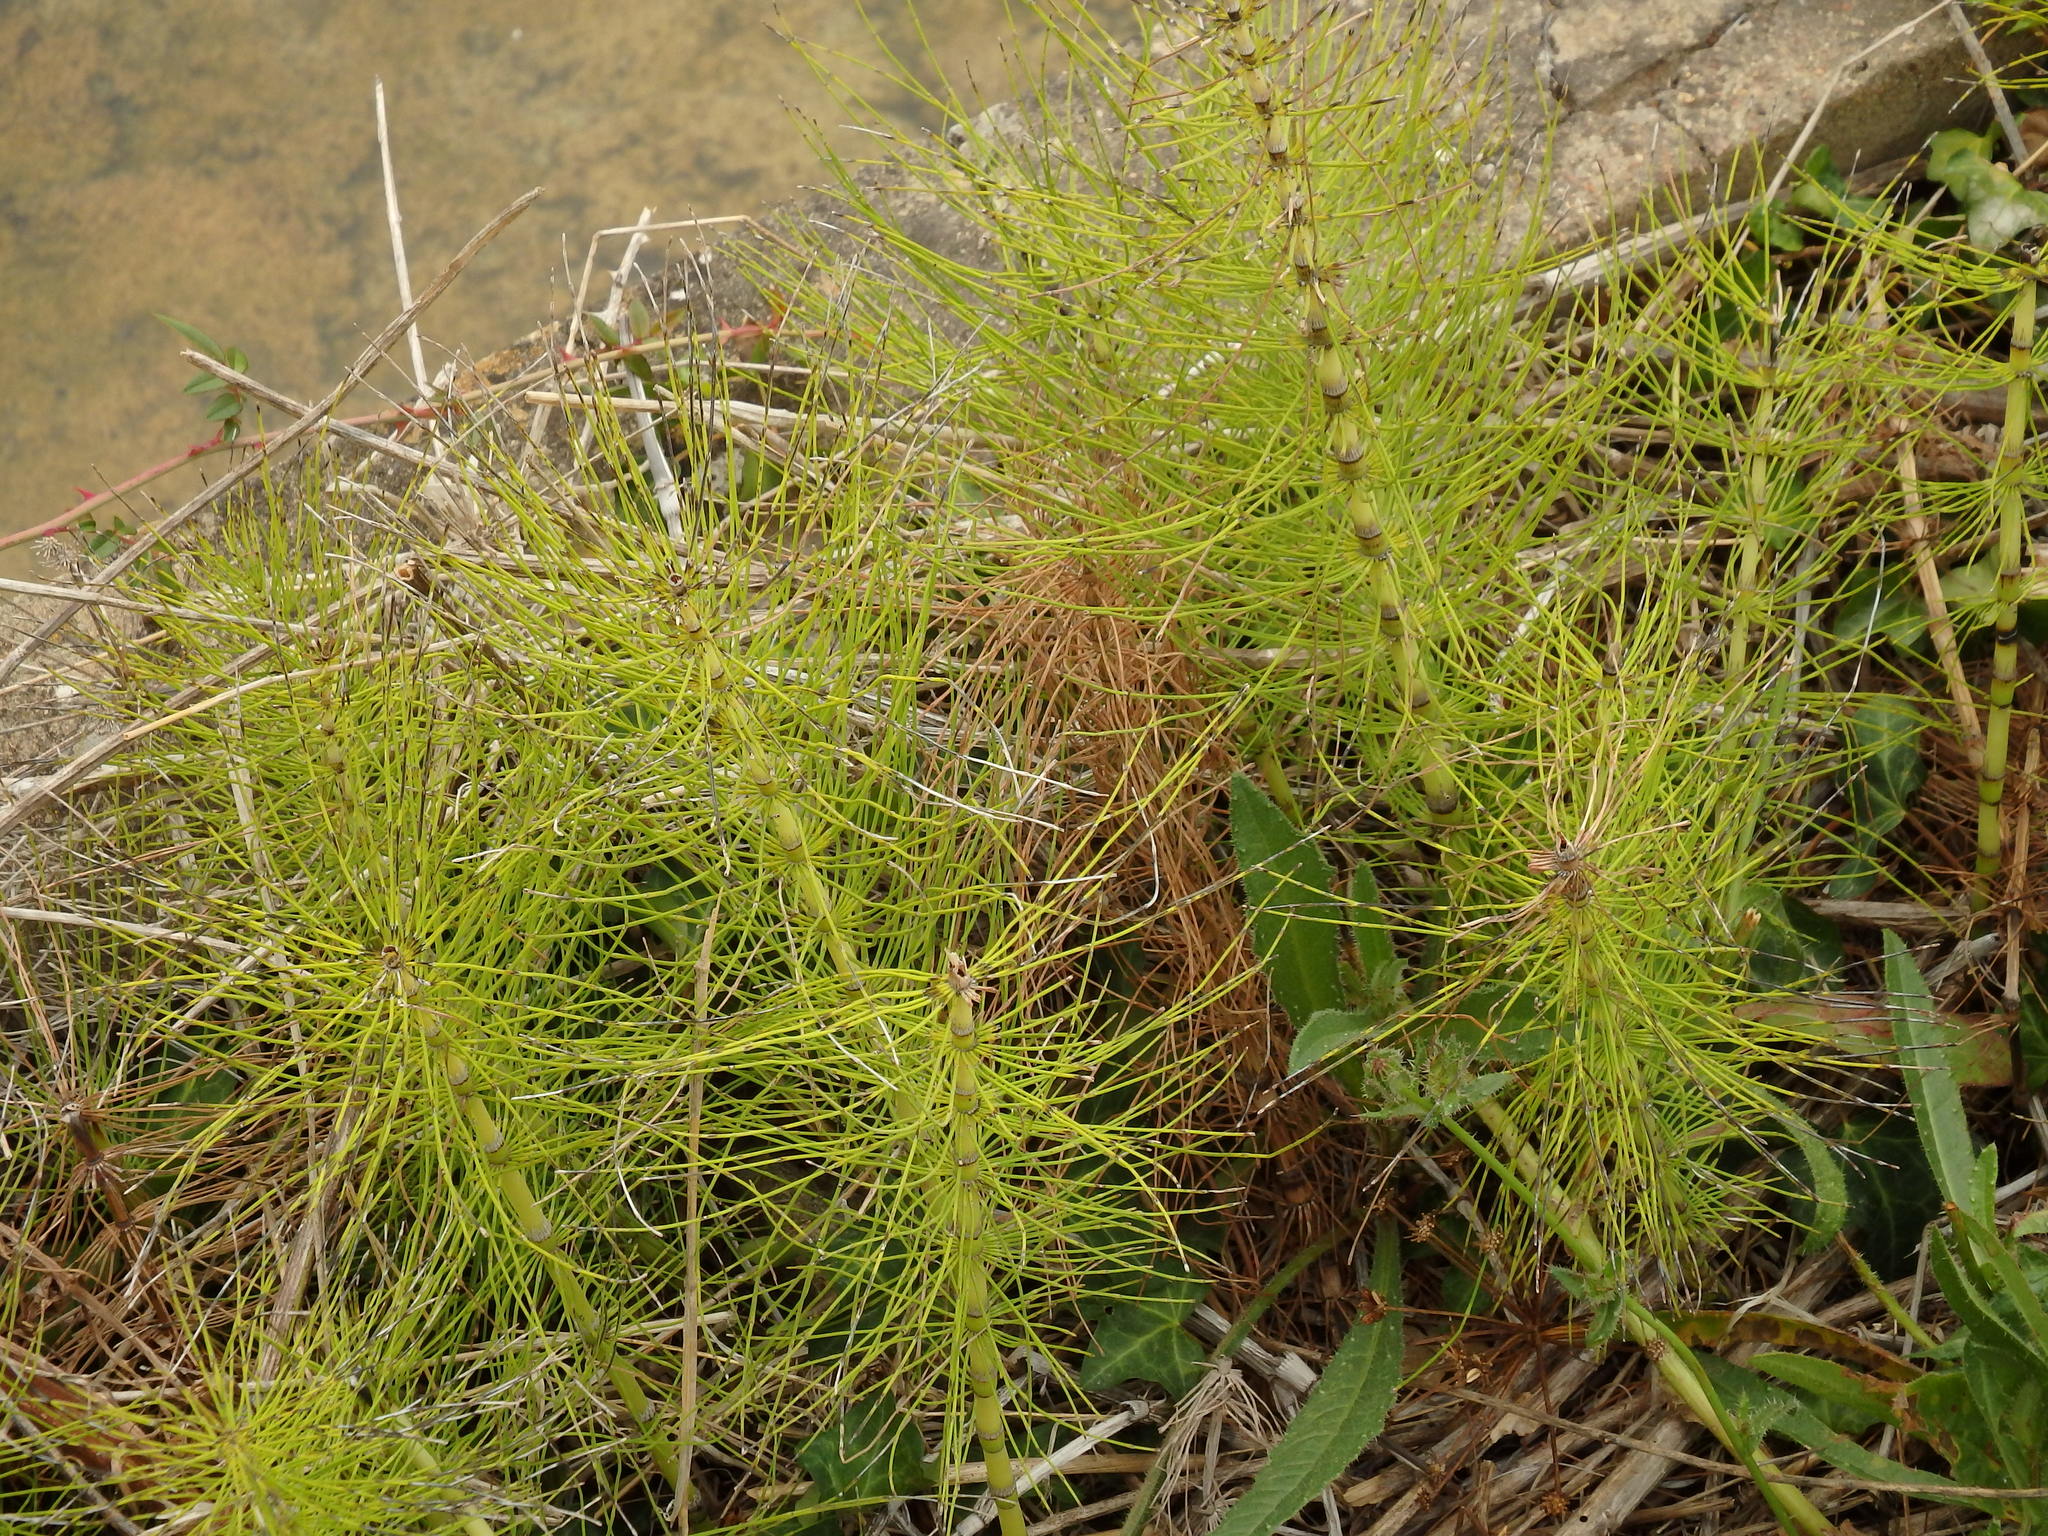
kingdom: Plantae
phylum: Tracheophyta
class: Polypodiopsida
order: Equisetales
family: Equisetaceae
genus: Equisetum
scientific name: Equisetum telmateia
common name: Great horsetail
